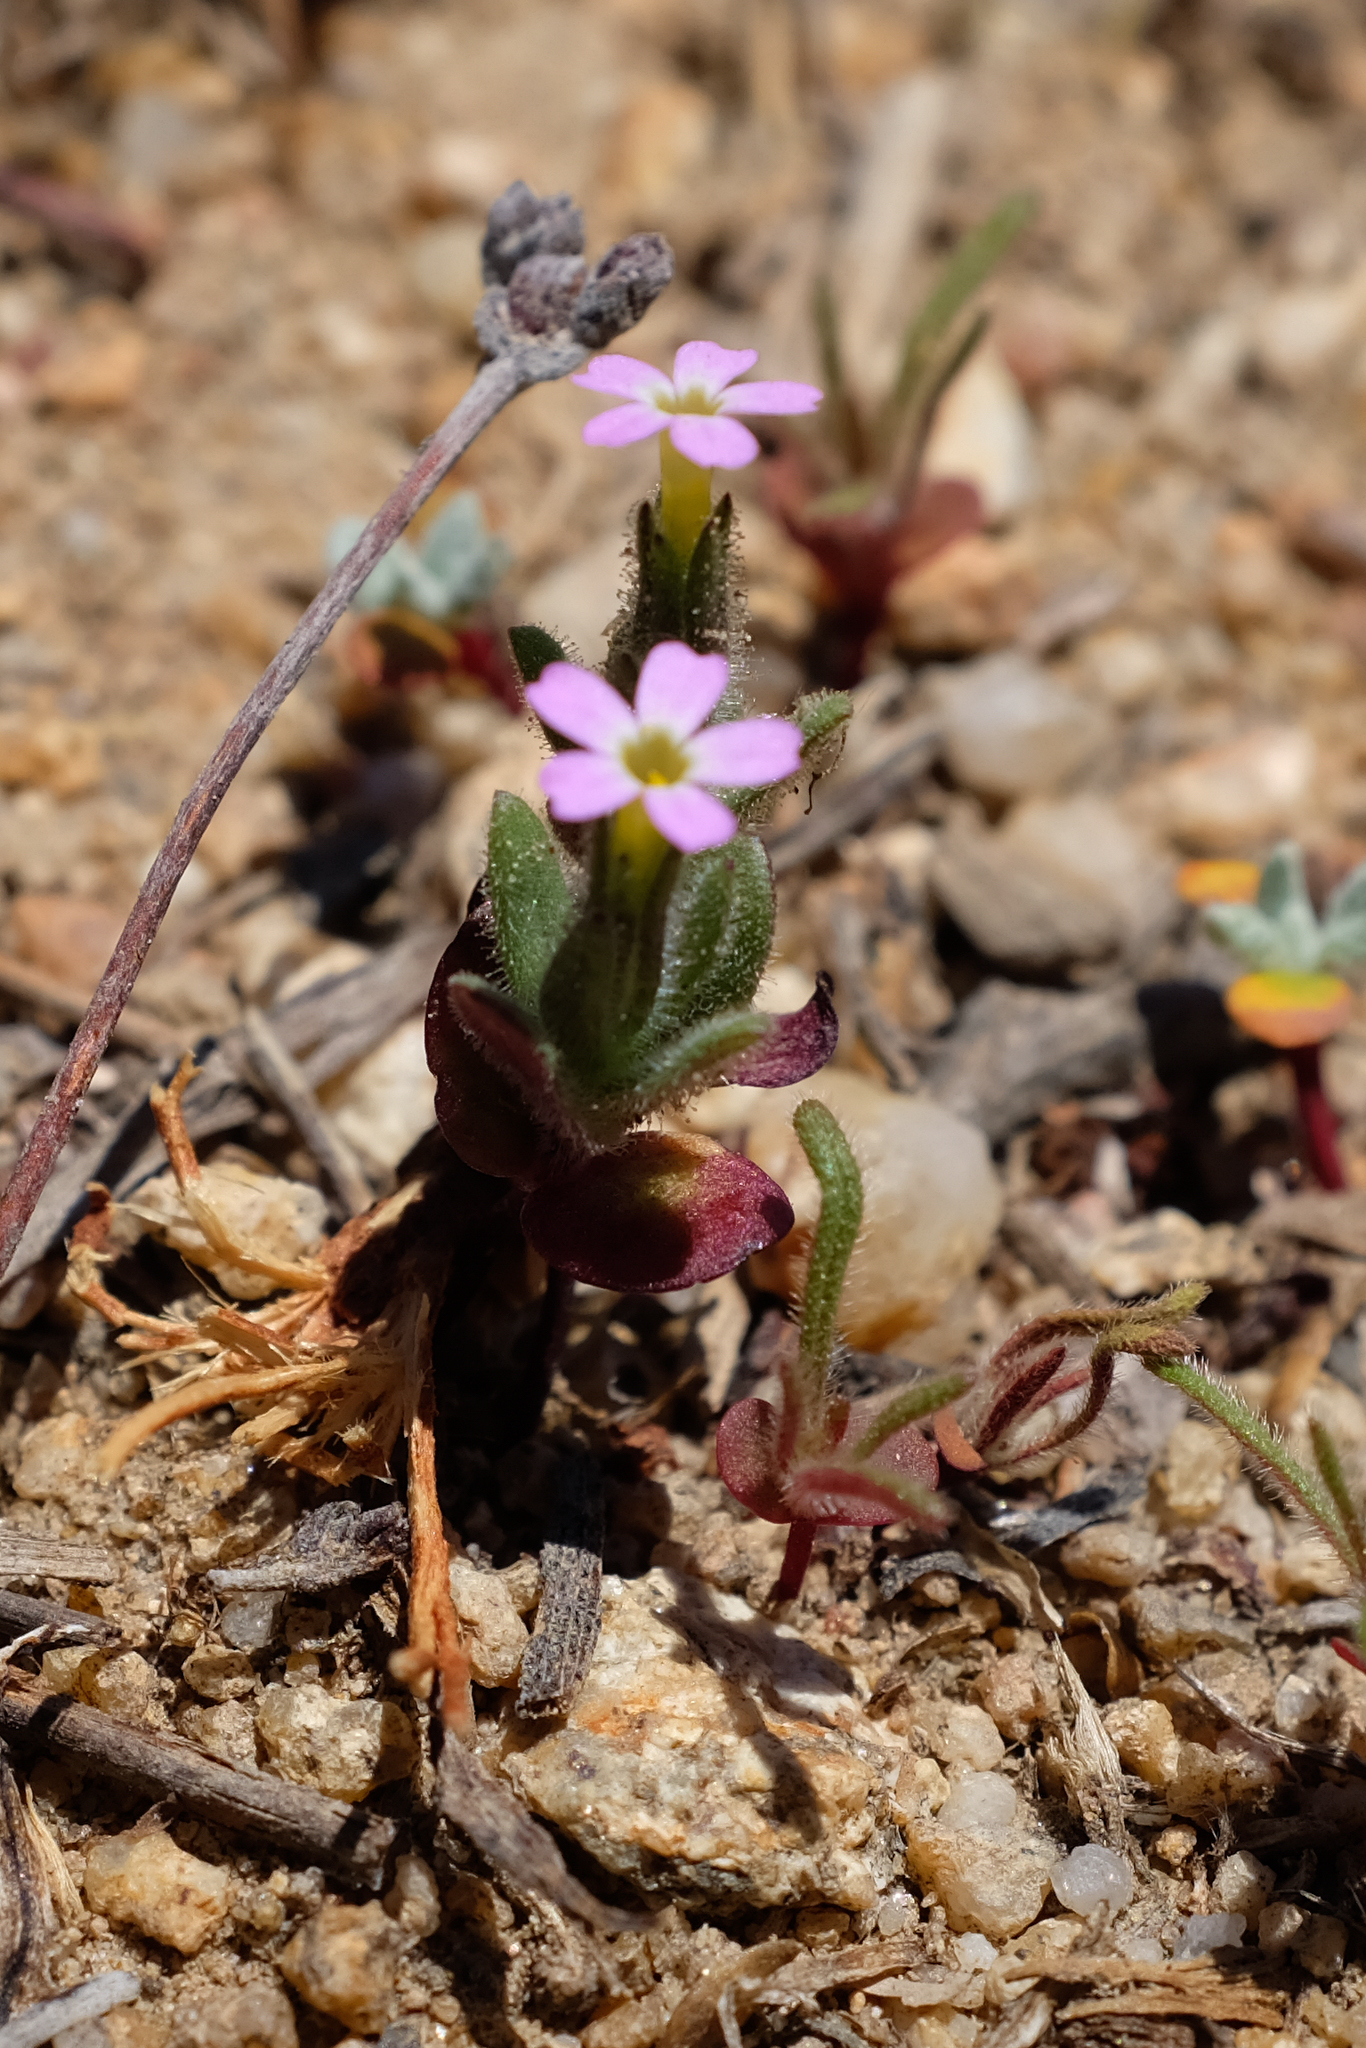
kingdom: Plantae
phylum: Tracheophyta
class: Magnoliopsida
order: Ericales
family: Polemoniaceae
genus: Phlox
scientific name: Phlox gracilis
